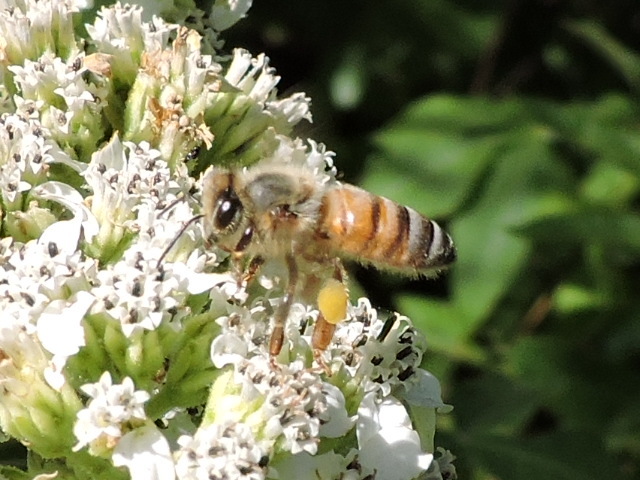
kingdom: Animalia
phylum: Arthropoda
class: Insecta
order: Hymenoptera
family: Apidae
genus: Apis
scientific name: Apis mellifera
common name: Honey bee
